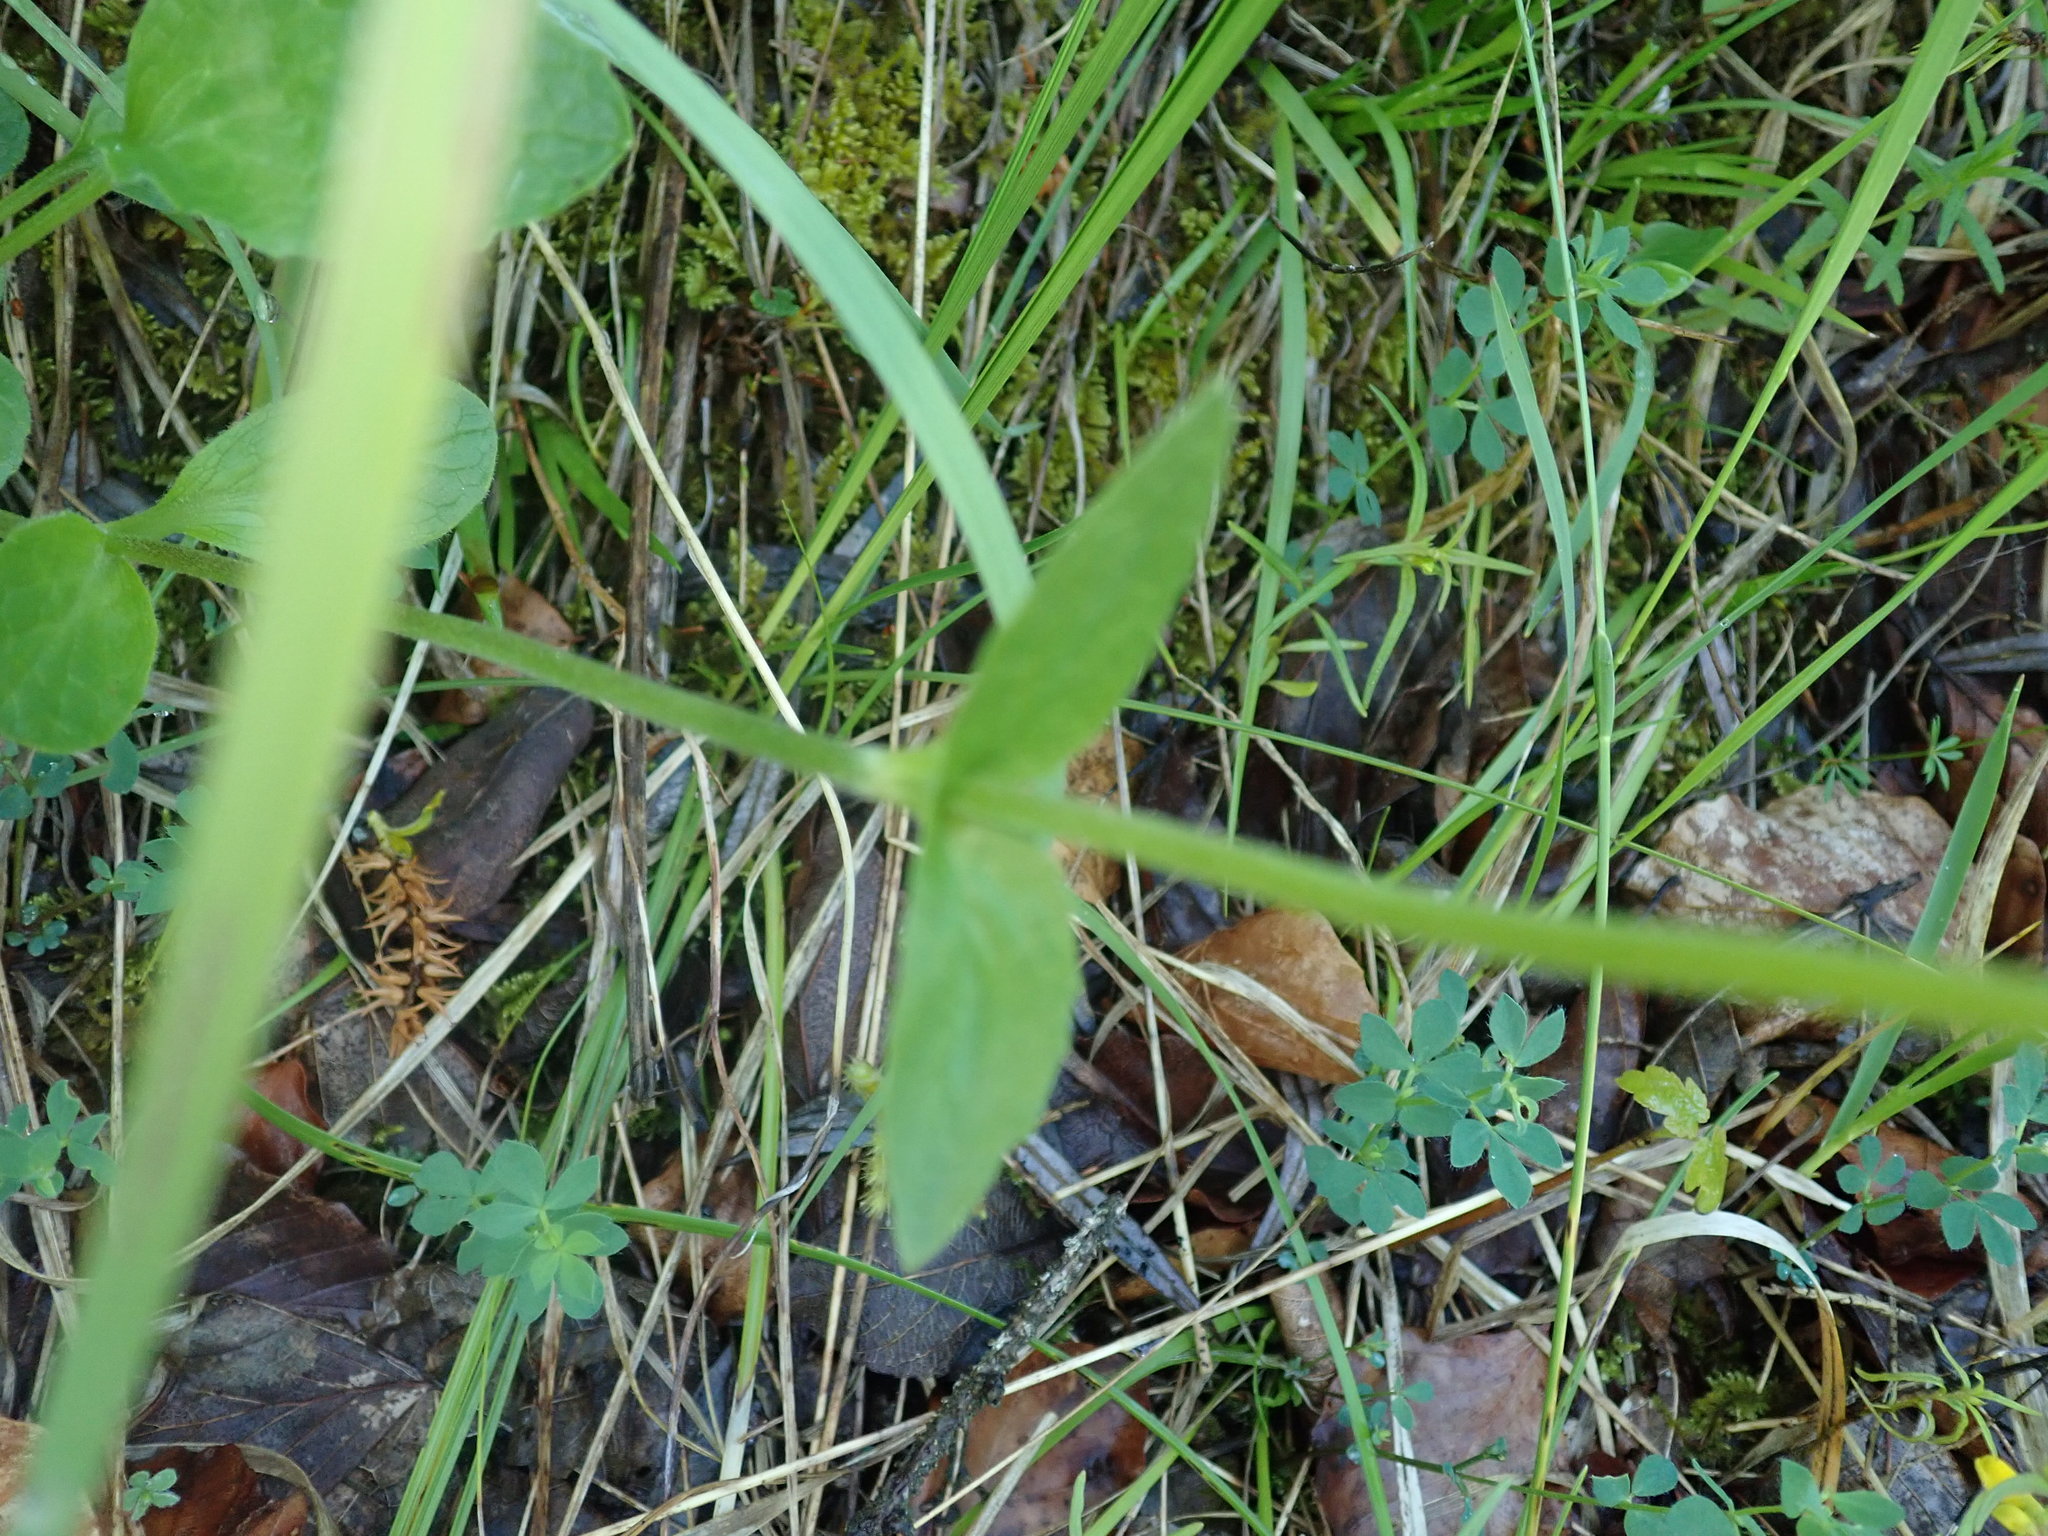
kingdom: Plantae
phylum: Tracheophyta
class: Magnoliopsida
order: Dipsacales
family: Caprifoliaceae
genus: Valeriana
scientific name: Valeriana montana
